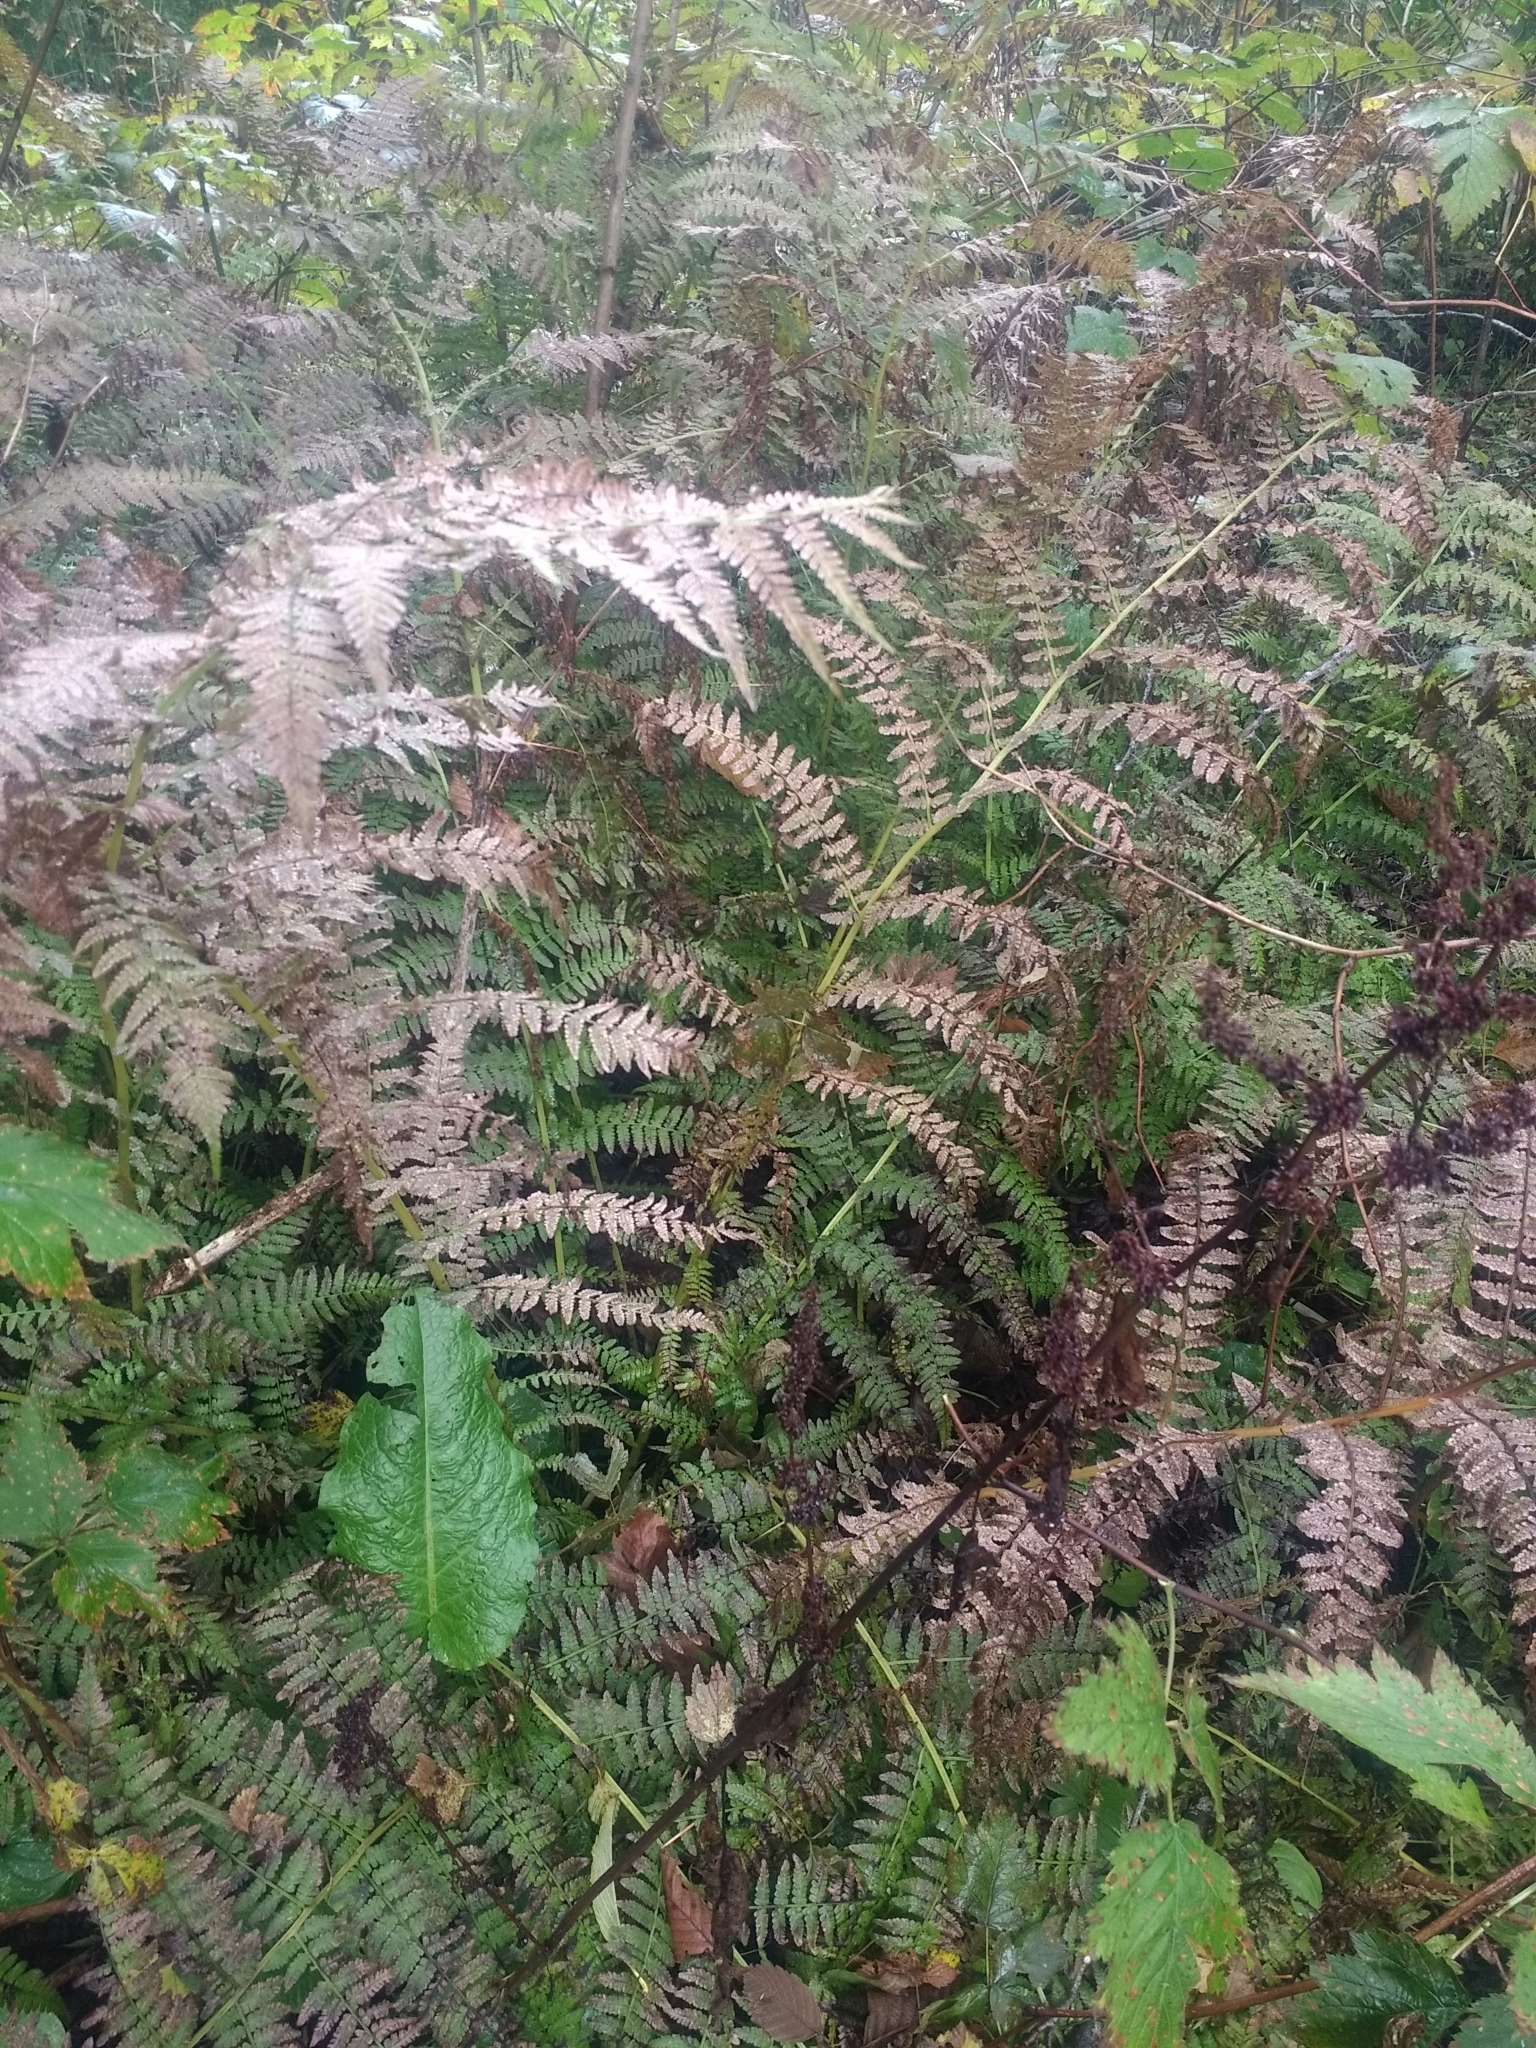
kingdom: Plantae
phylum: Tracheophyta
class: Polypodiopsida
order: Polypodiales
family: Athyriaceae
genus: Athyrium
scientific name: Athyrium filix-femina
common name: Lady fern
